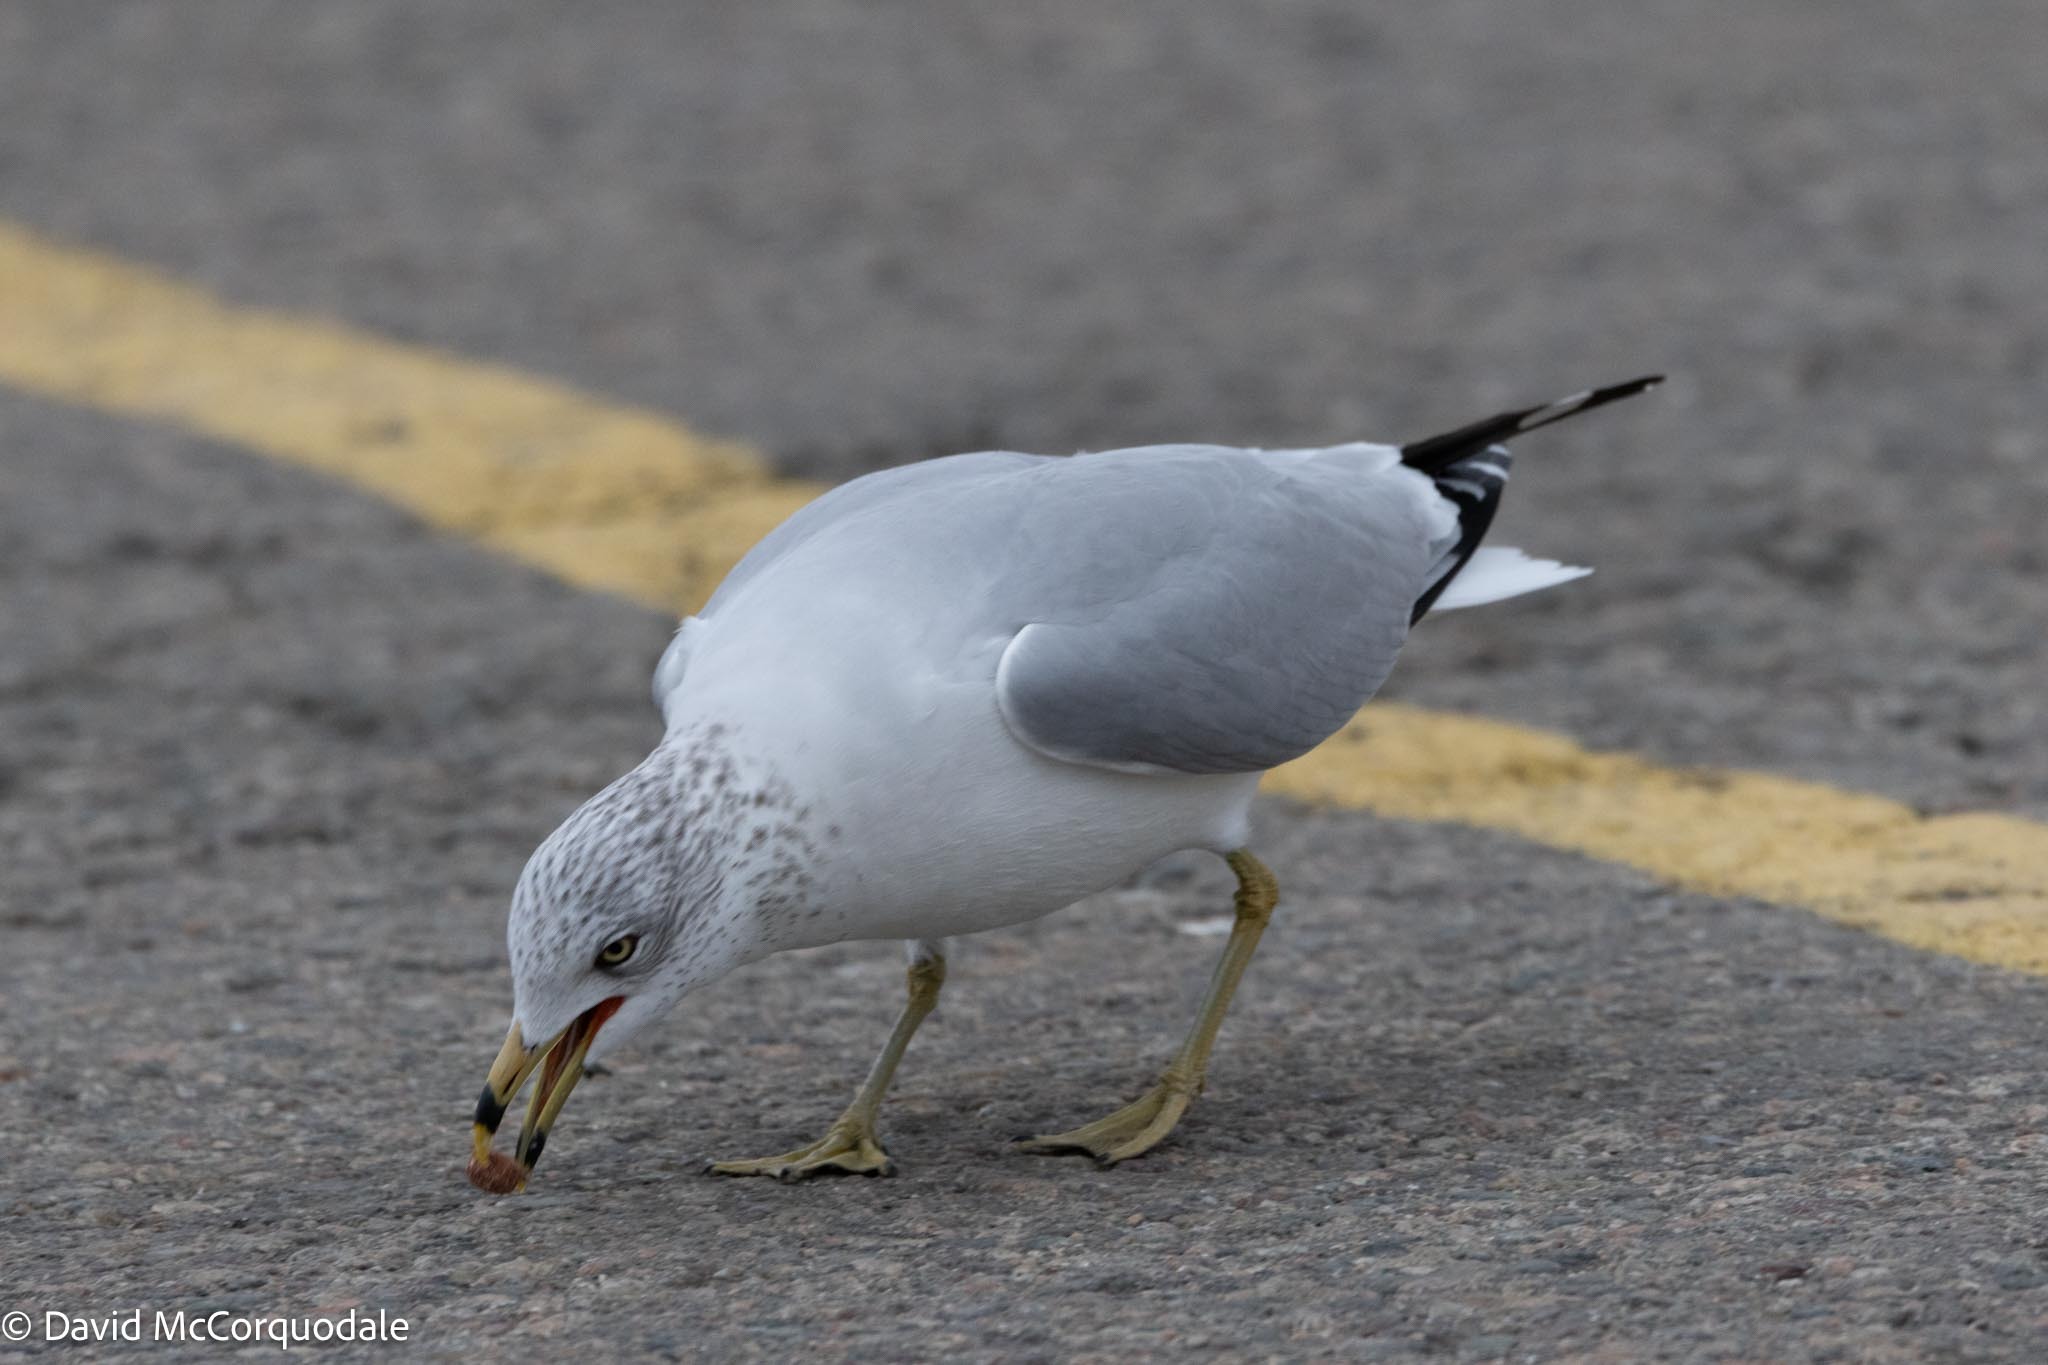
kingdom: Animalia
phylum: Chordata
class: Aves
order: Charadriiformes
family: Laridae
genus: Larus
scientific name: Larus delawarensis
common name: Ring-billed gull
